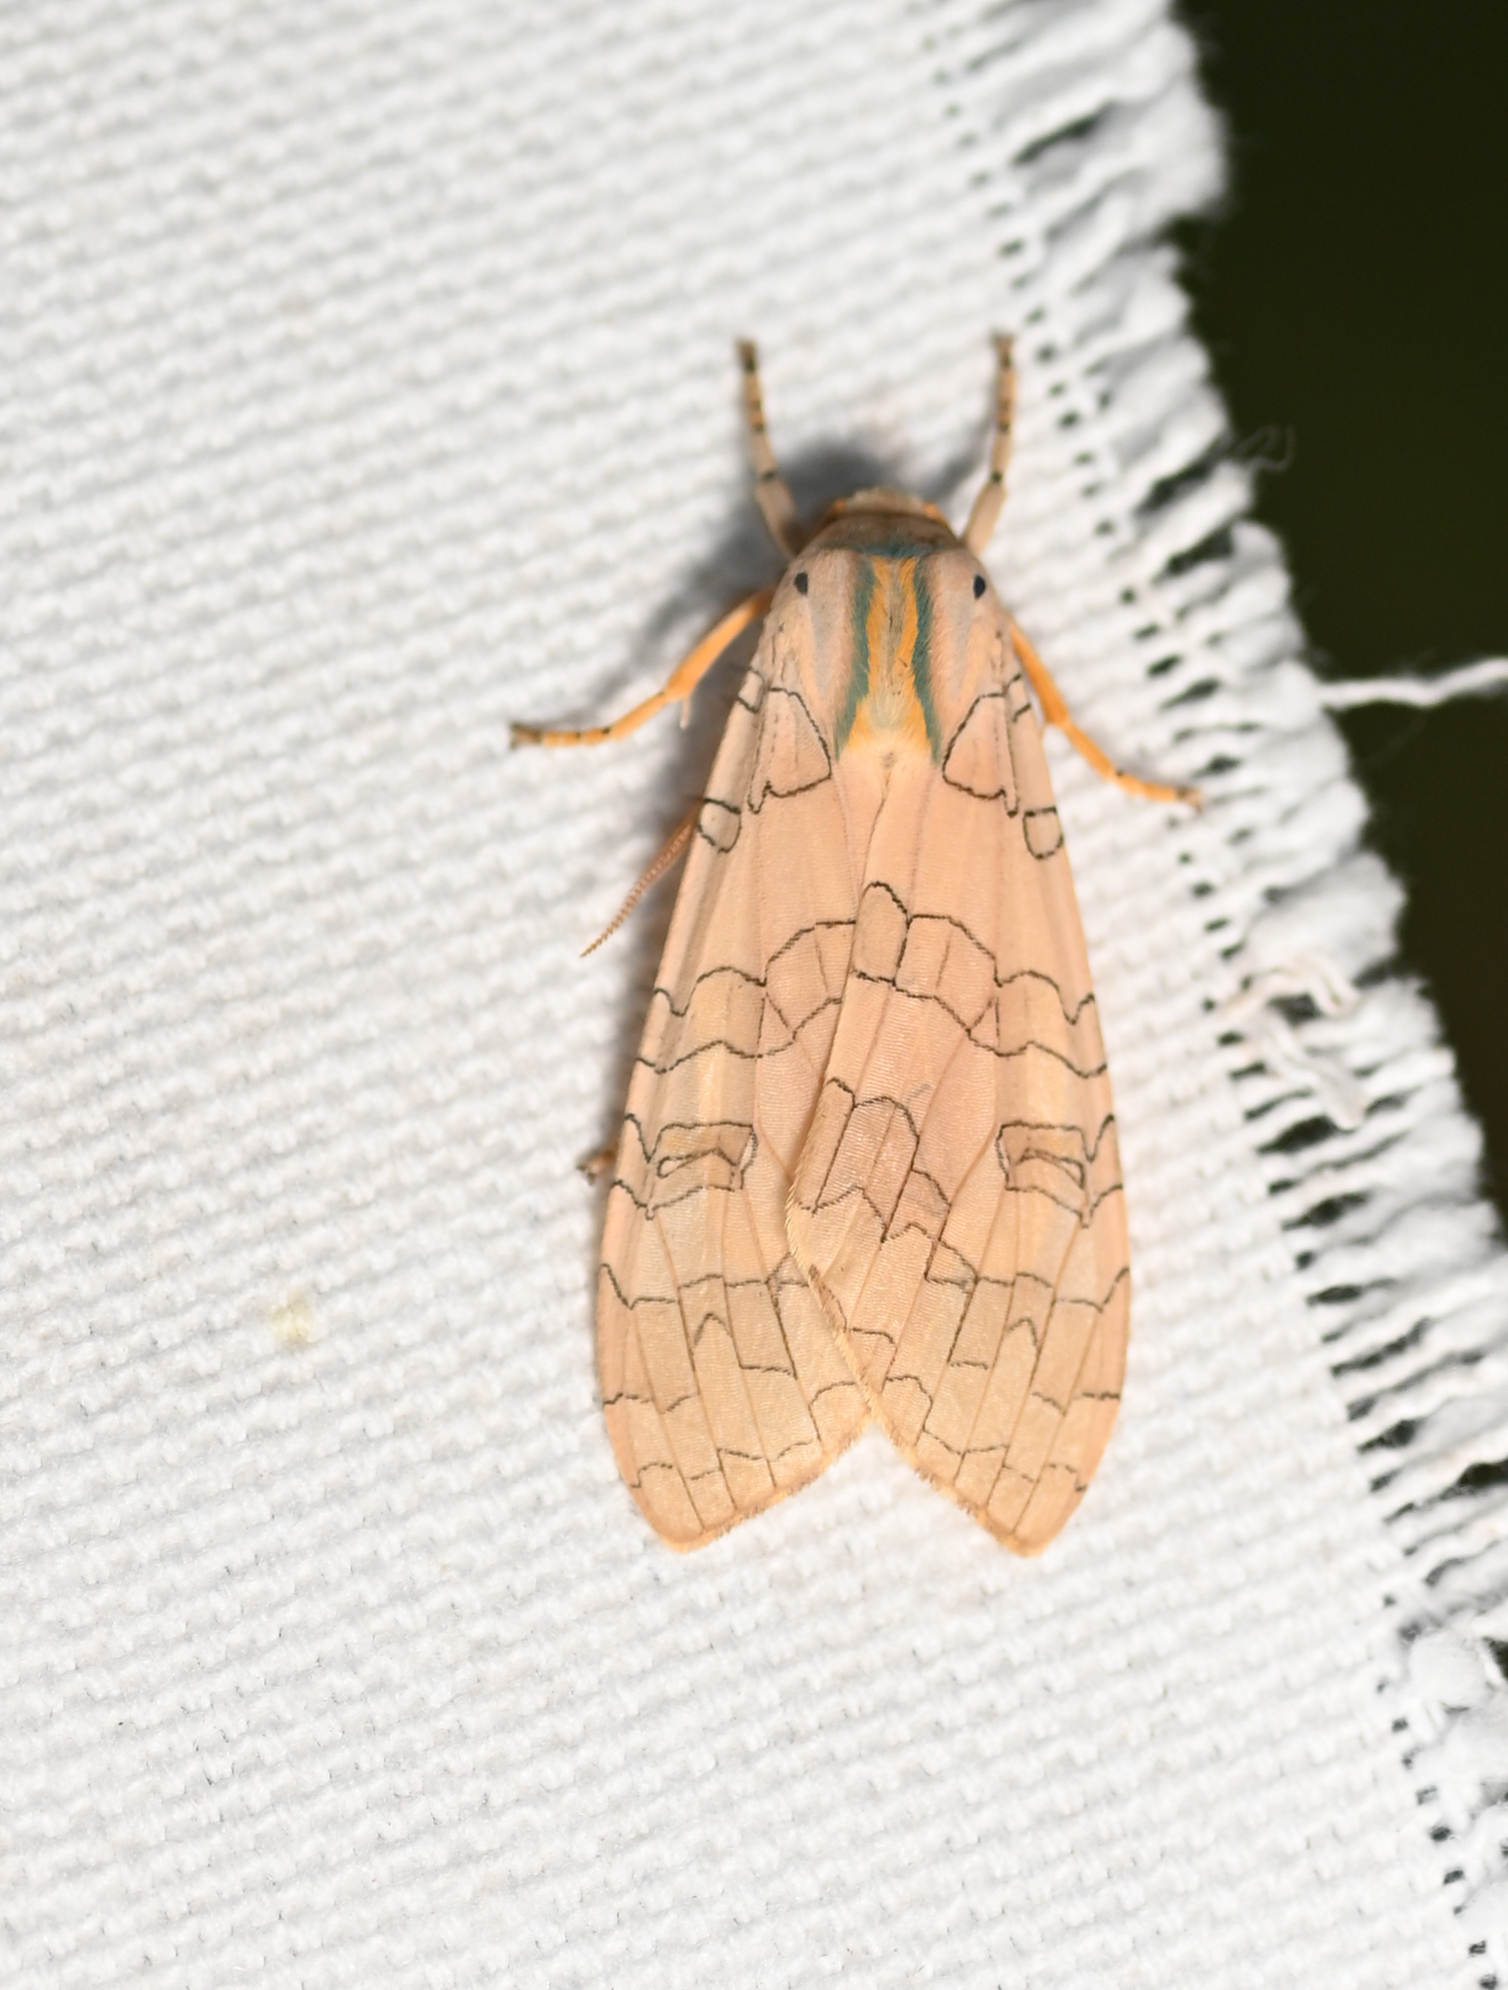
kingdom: Animalia
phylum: Arthropoda
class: Insecta
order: Lepidoptera
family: Erebidae
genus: Halysidota
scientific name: Halysidota
